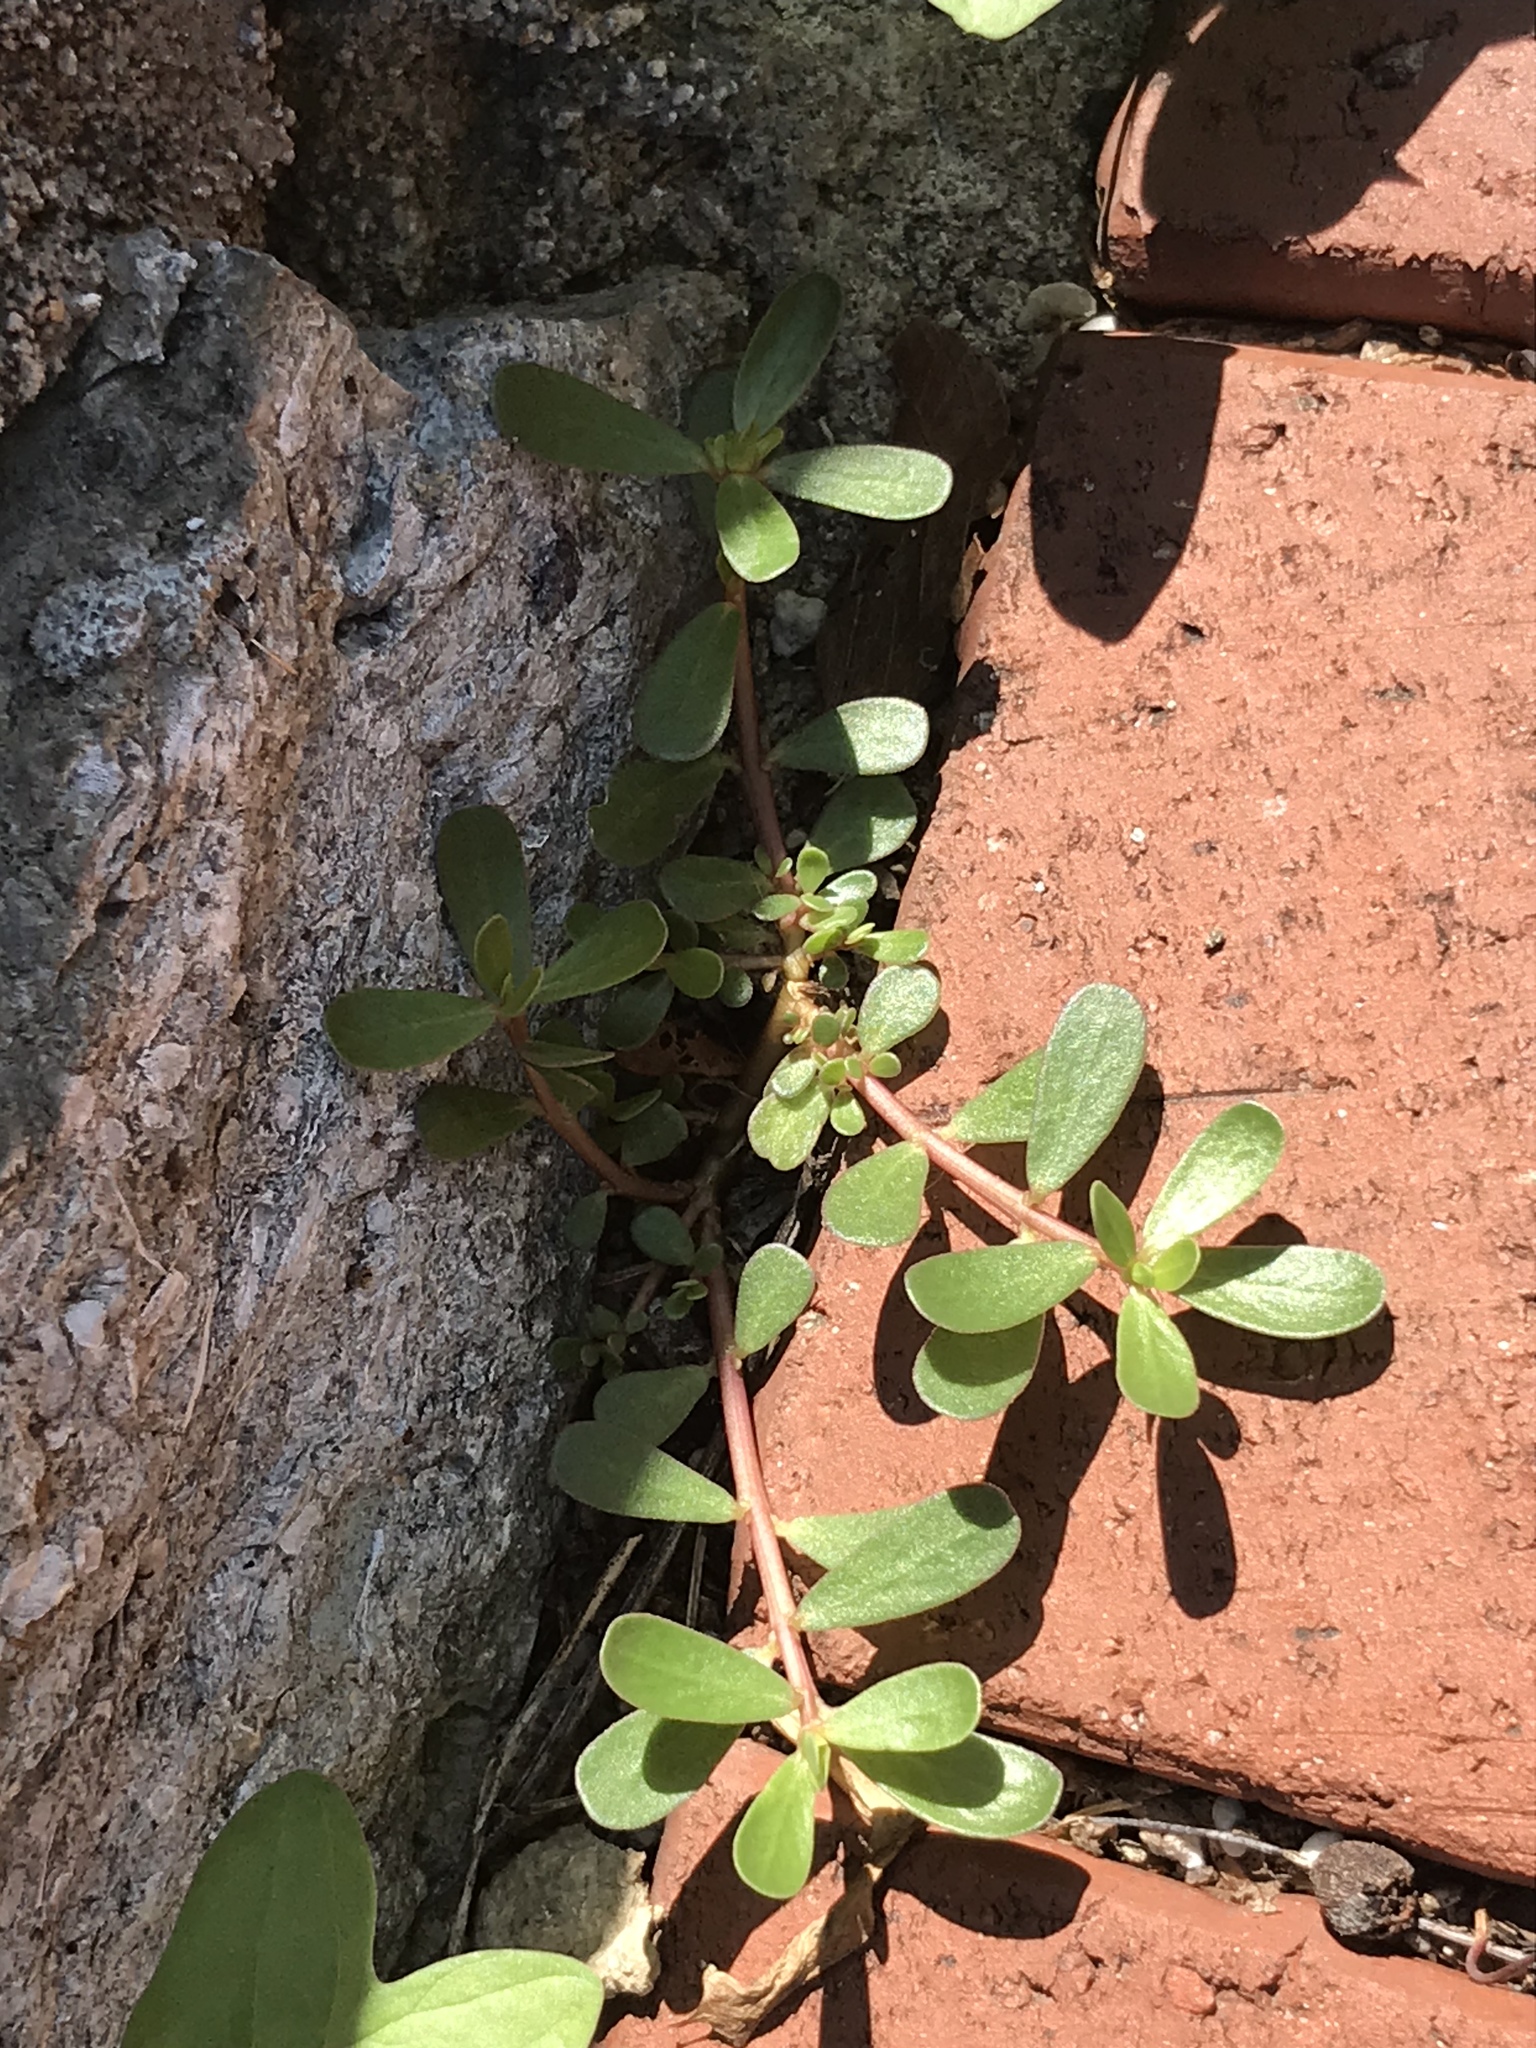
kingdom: Plantae
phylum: Tracheophyta
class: Magnoliopsida
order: Caryophyllales
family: Portulacaceae
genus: Portulaca
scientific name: Portulaca oleracea
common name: Common purslane
